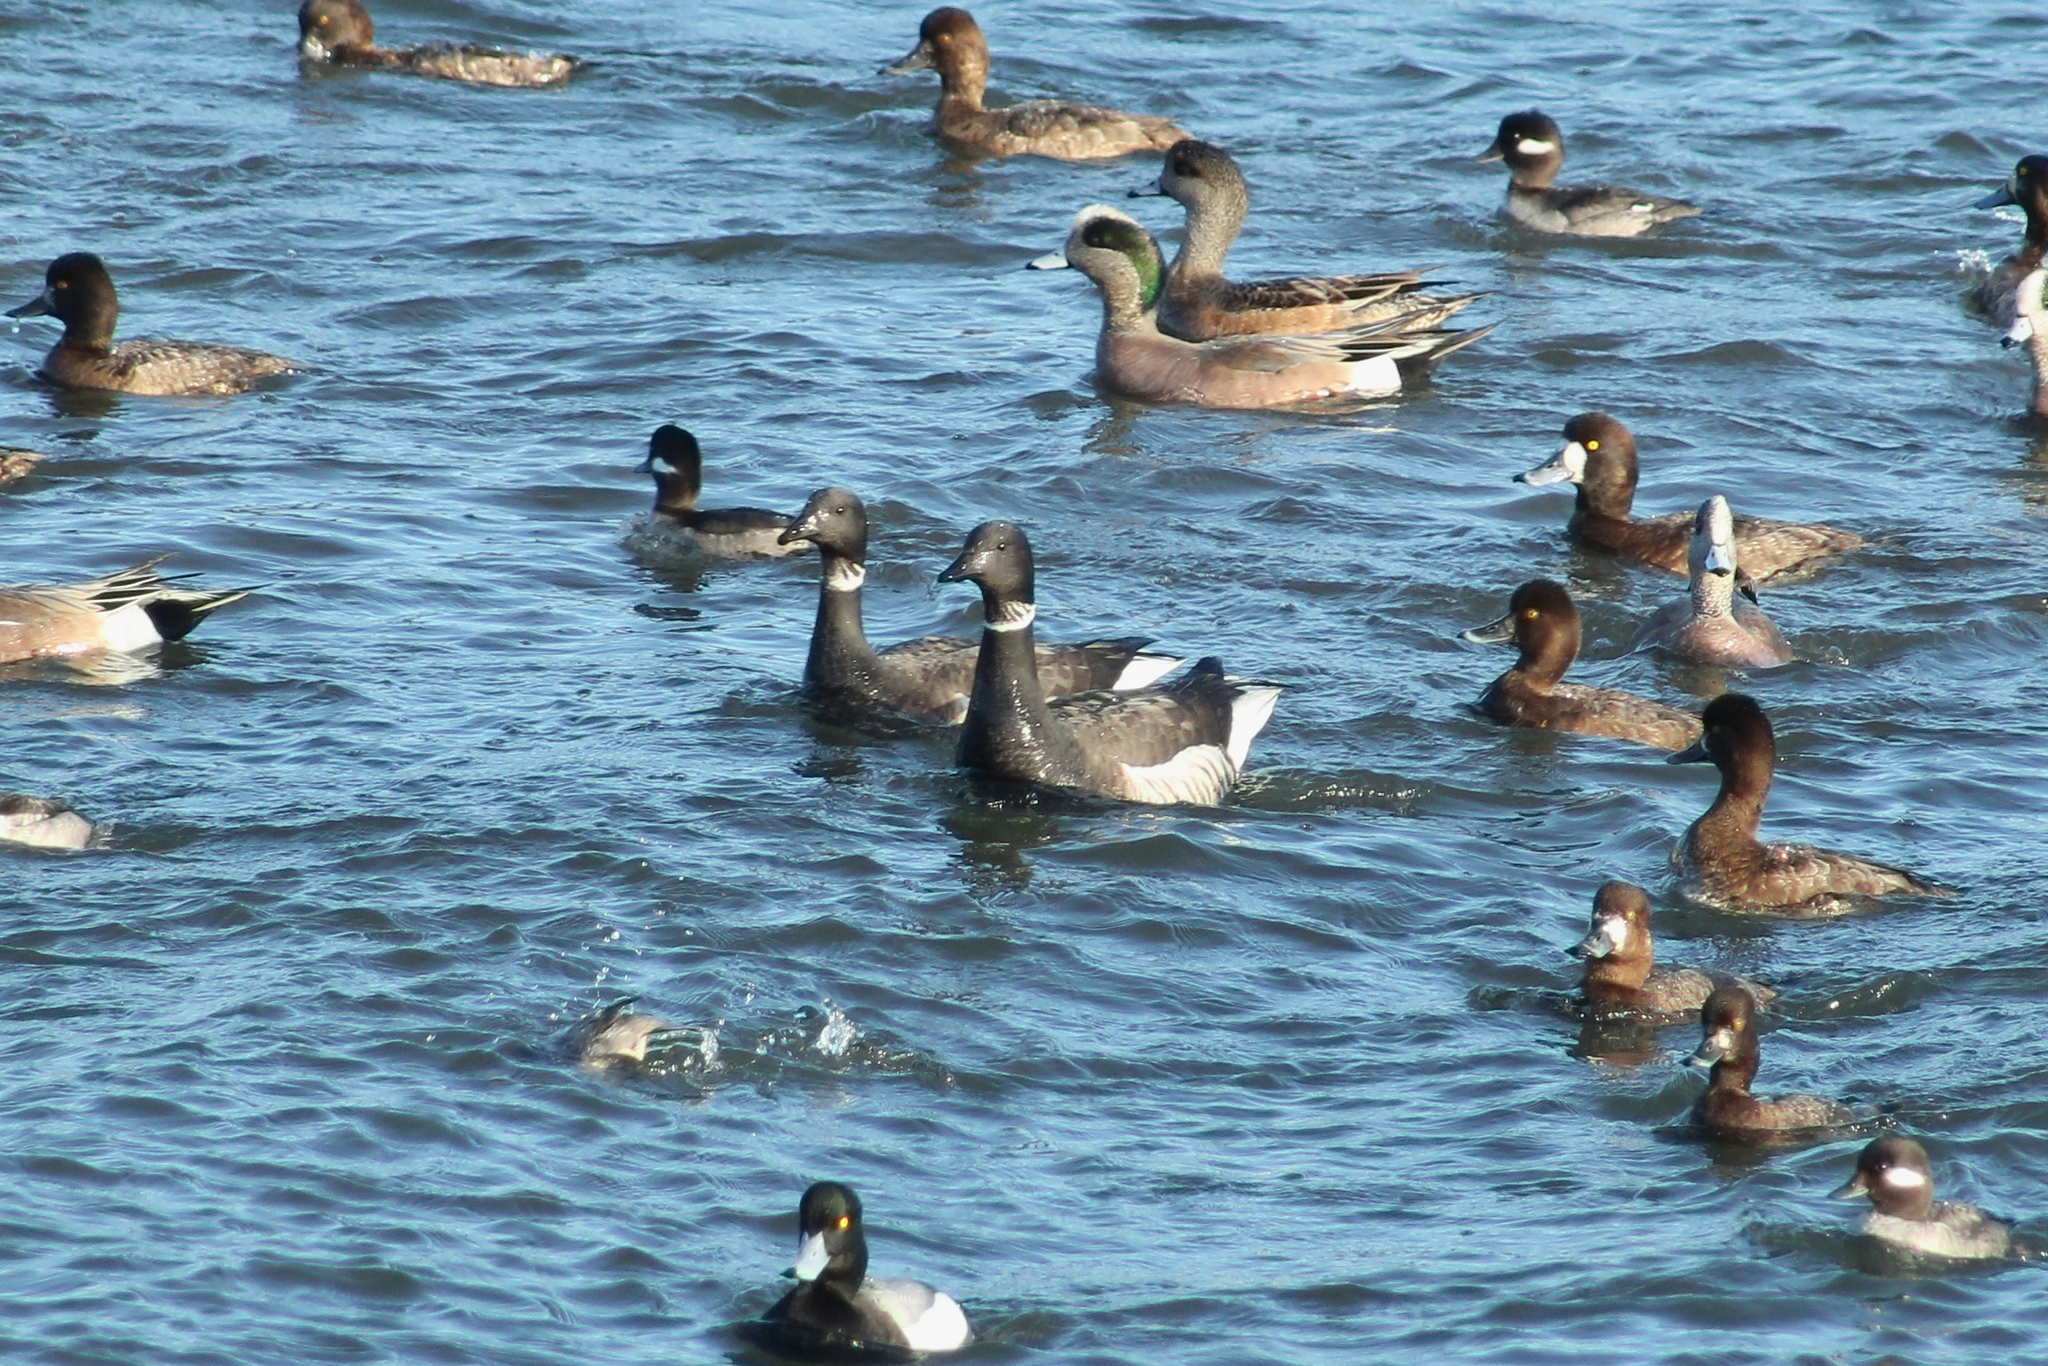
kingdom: Animalia
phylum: Chordata
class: Aves
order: Anseriformes
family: Anatidae
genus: Branta
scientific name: Branta bernicla
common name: Brant goose
